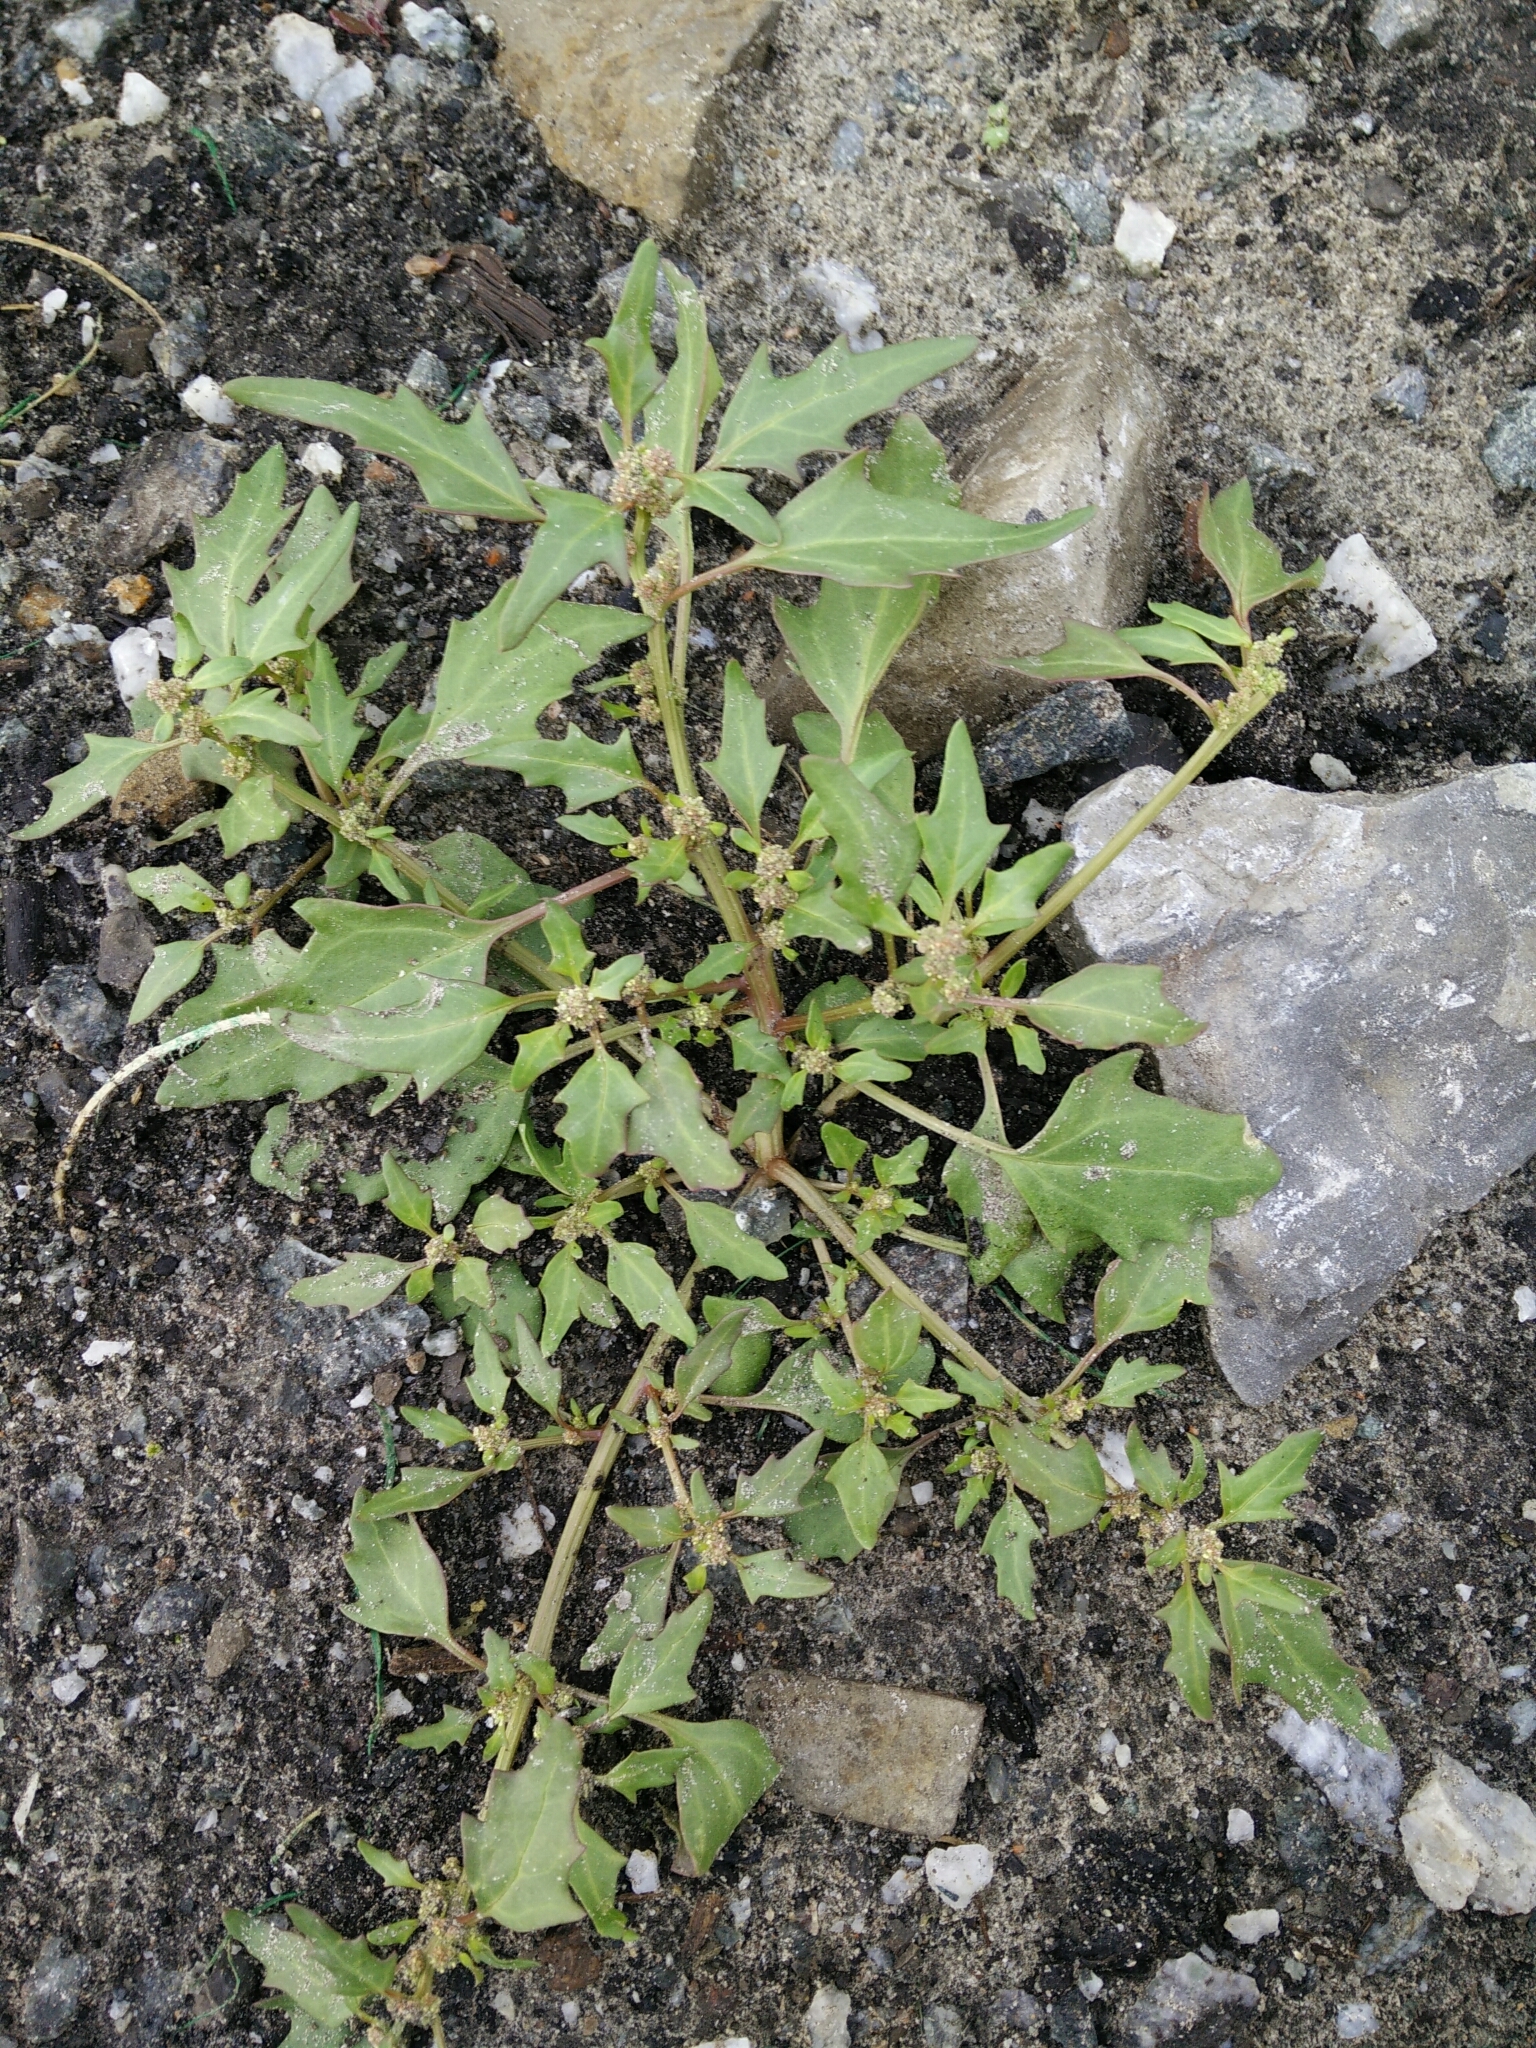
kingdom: Plantae
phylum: Tracheophyta
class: Magnoliopsida
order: Caryophyllales
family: Amaranthaceae
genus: Oxybasis
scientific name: Oxybasis rubra
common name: Red goosefoot
